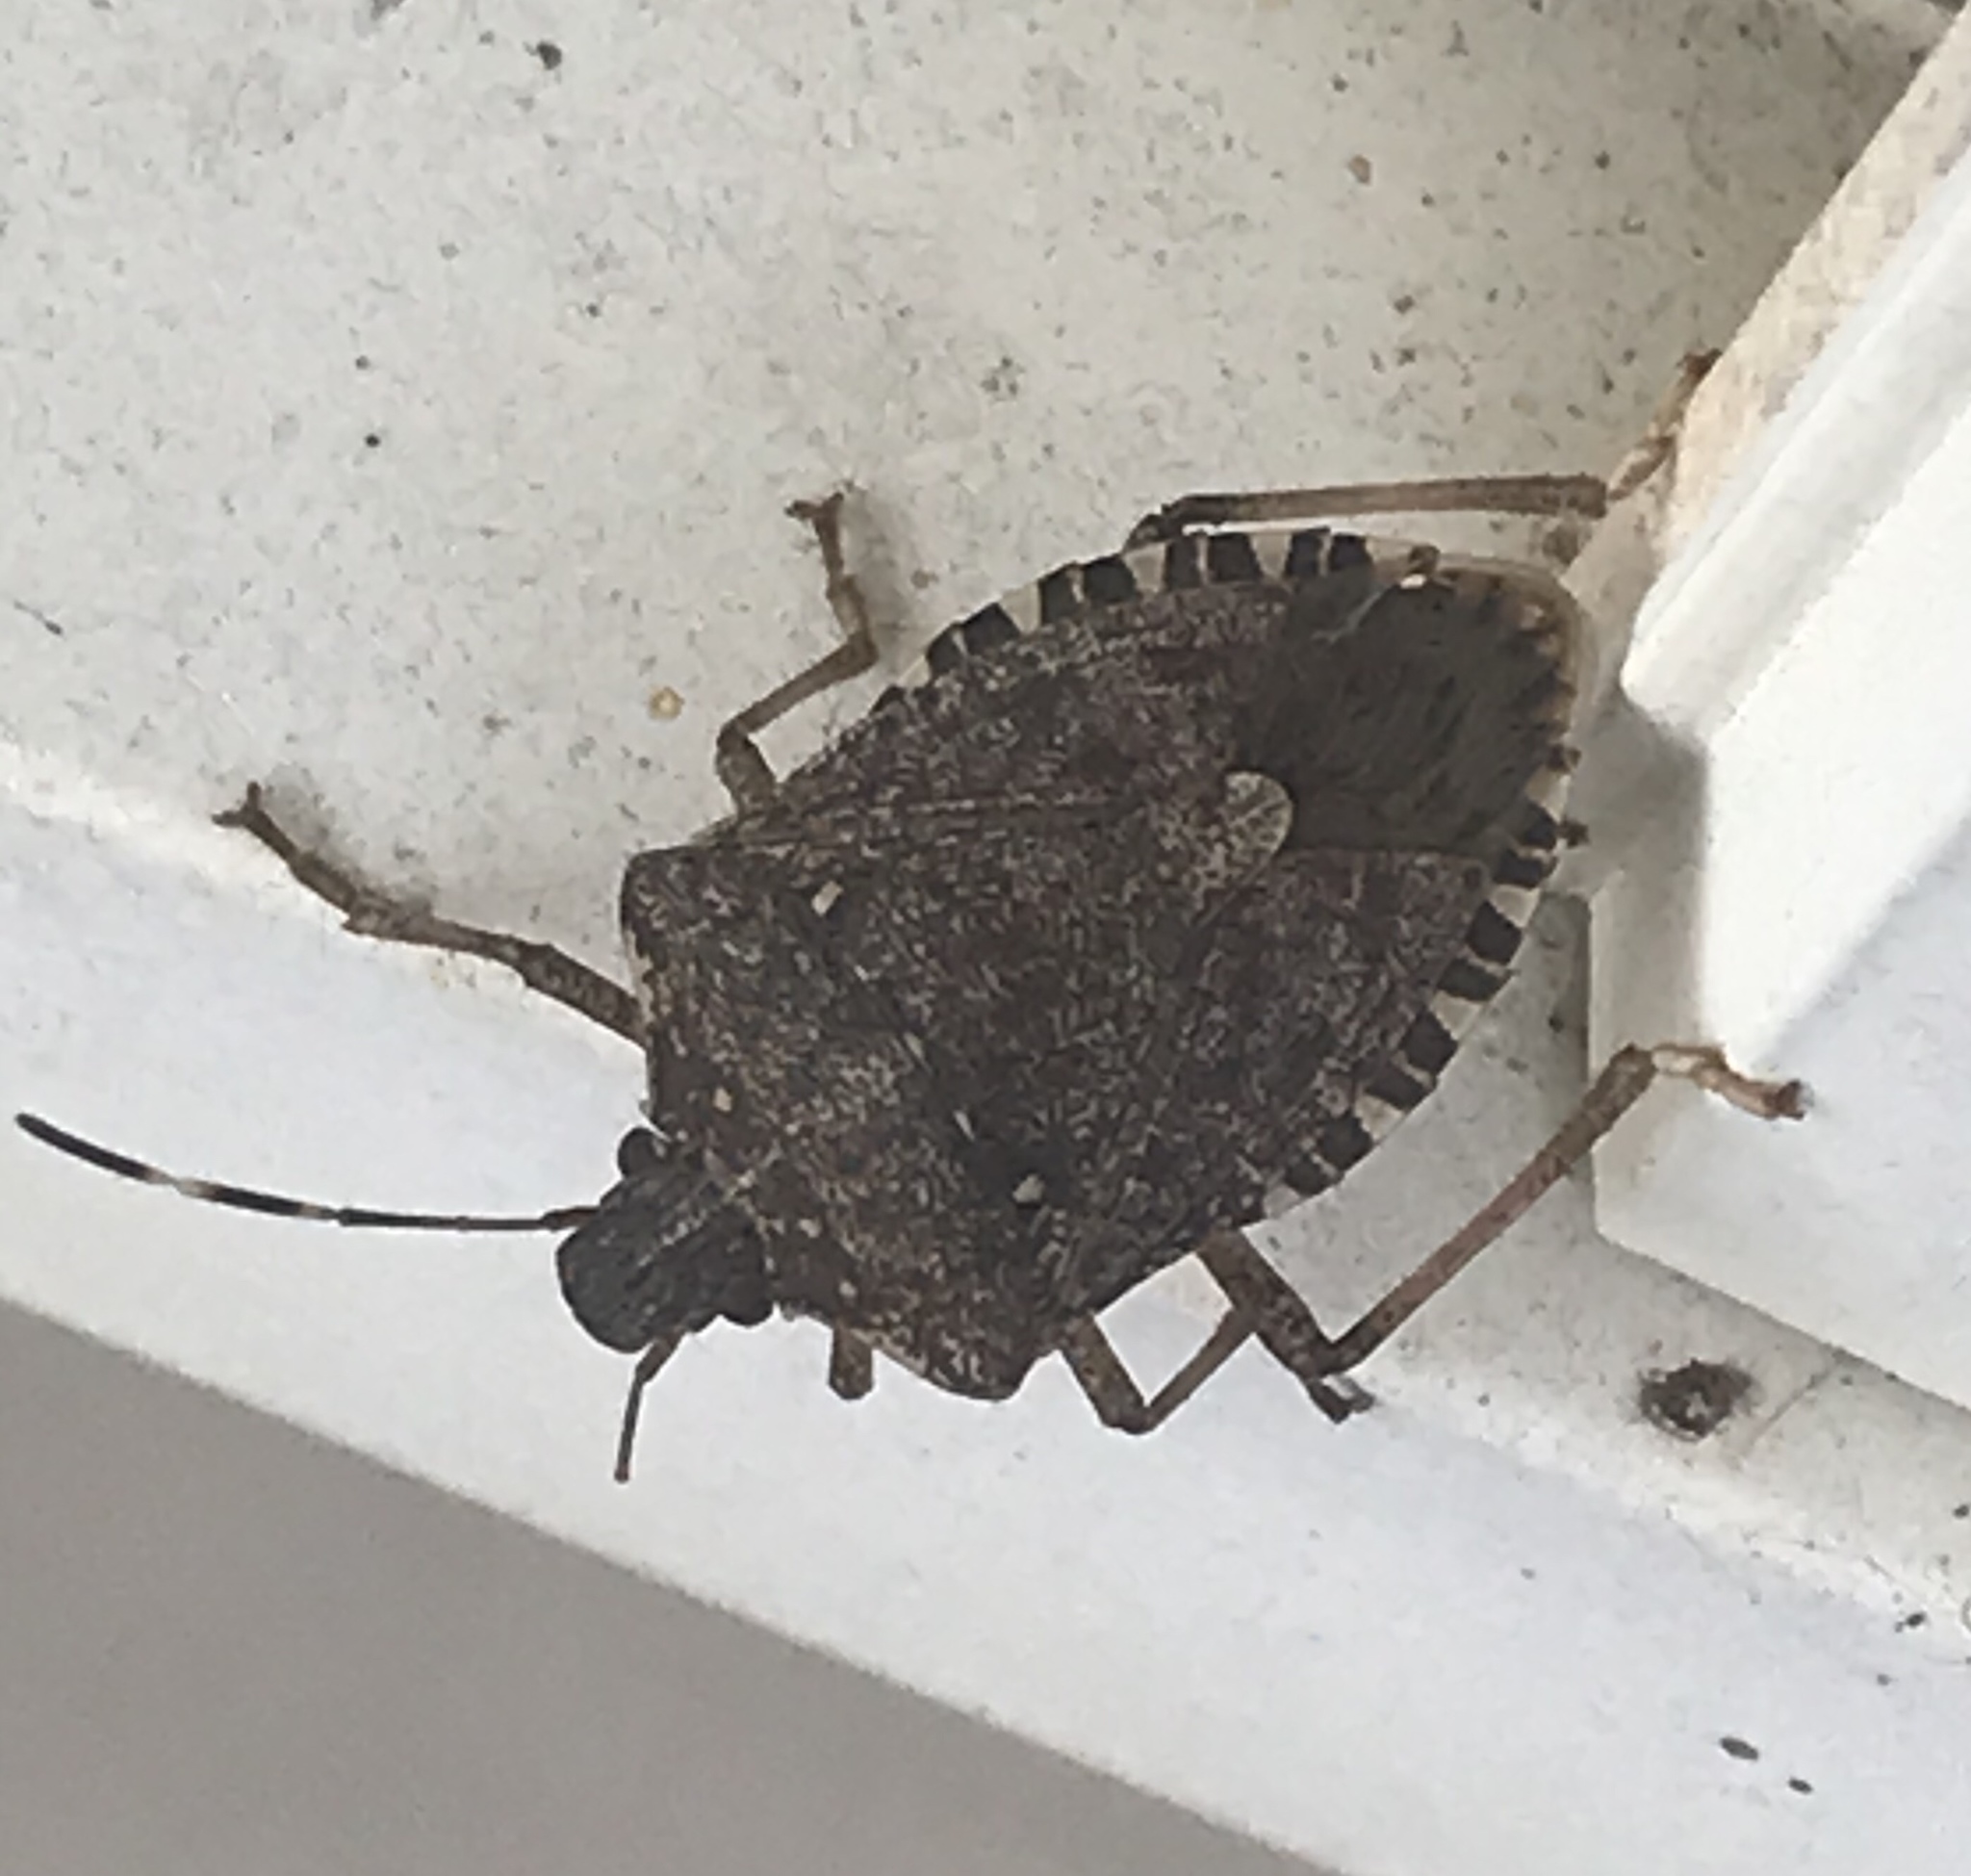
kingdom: Animalia
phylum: Arthropoda
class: Insecta
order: Hemiptera
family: Pentatomidae
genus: Halyomorpha
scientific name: Halyomorpha halys
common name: Brown marmorated stink bug
